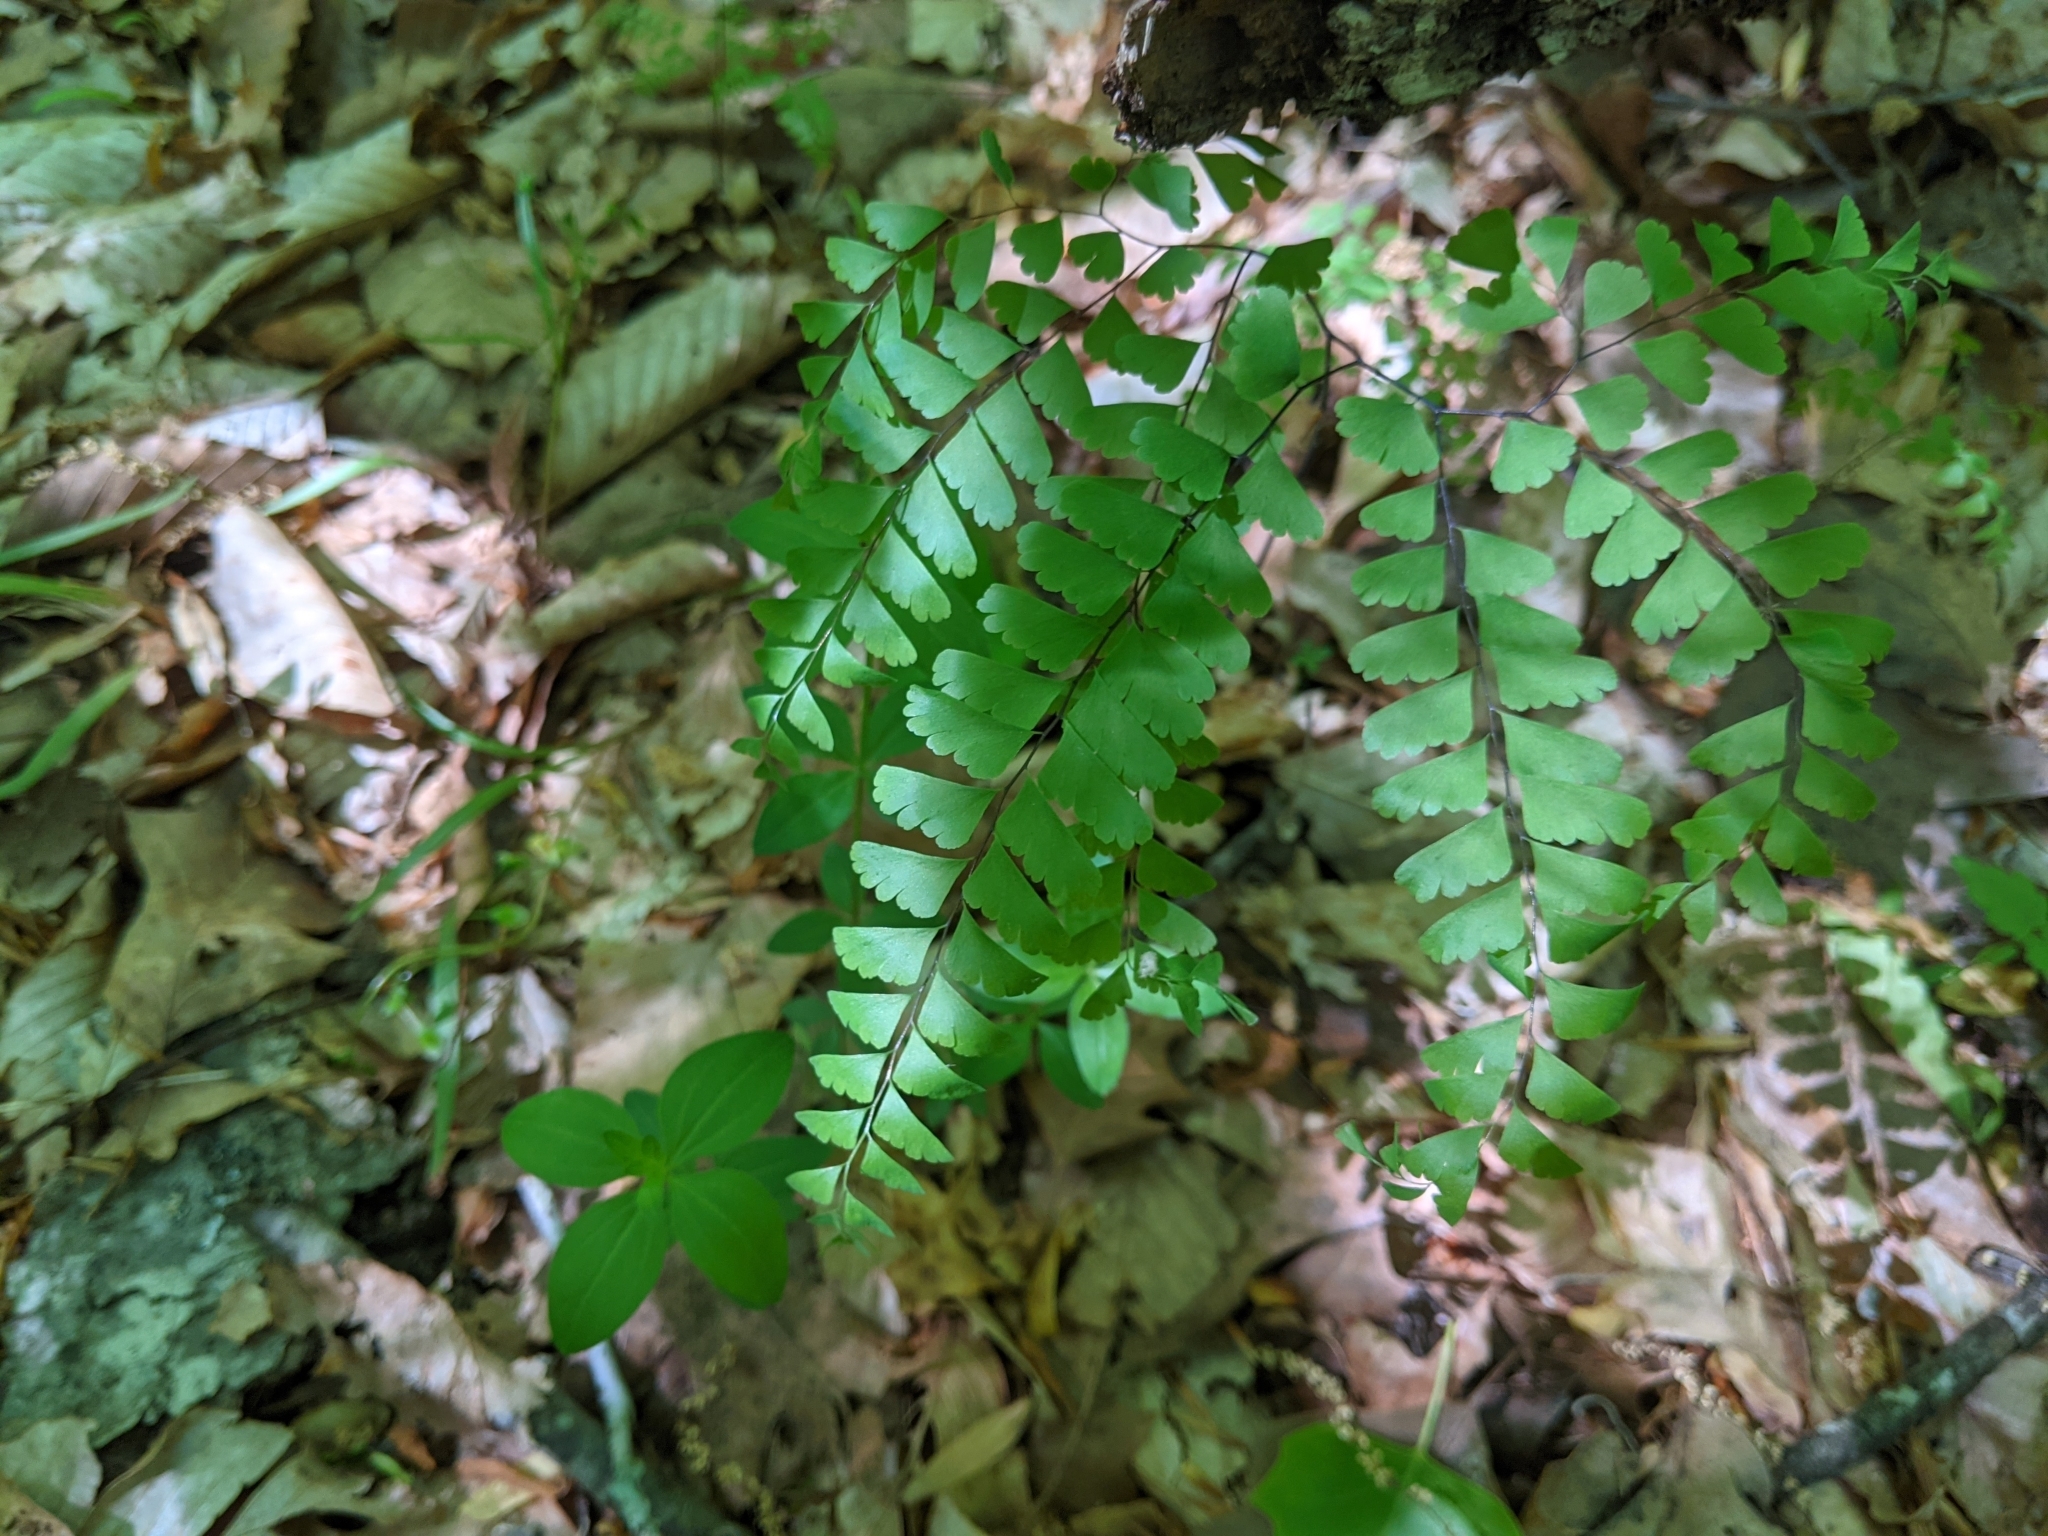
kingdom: Plantae
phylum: Tracheophyta
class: Polypodiopsida
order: Polypodiales
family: Pteridaceae
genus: Adiantum
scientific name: Adiantum pedatum
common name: Five-finger fern
